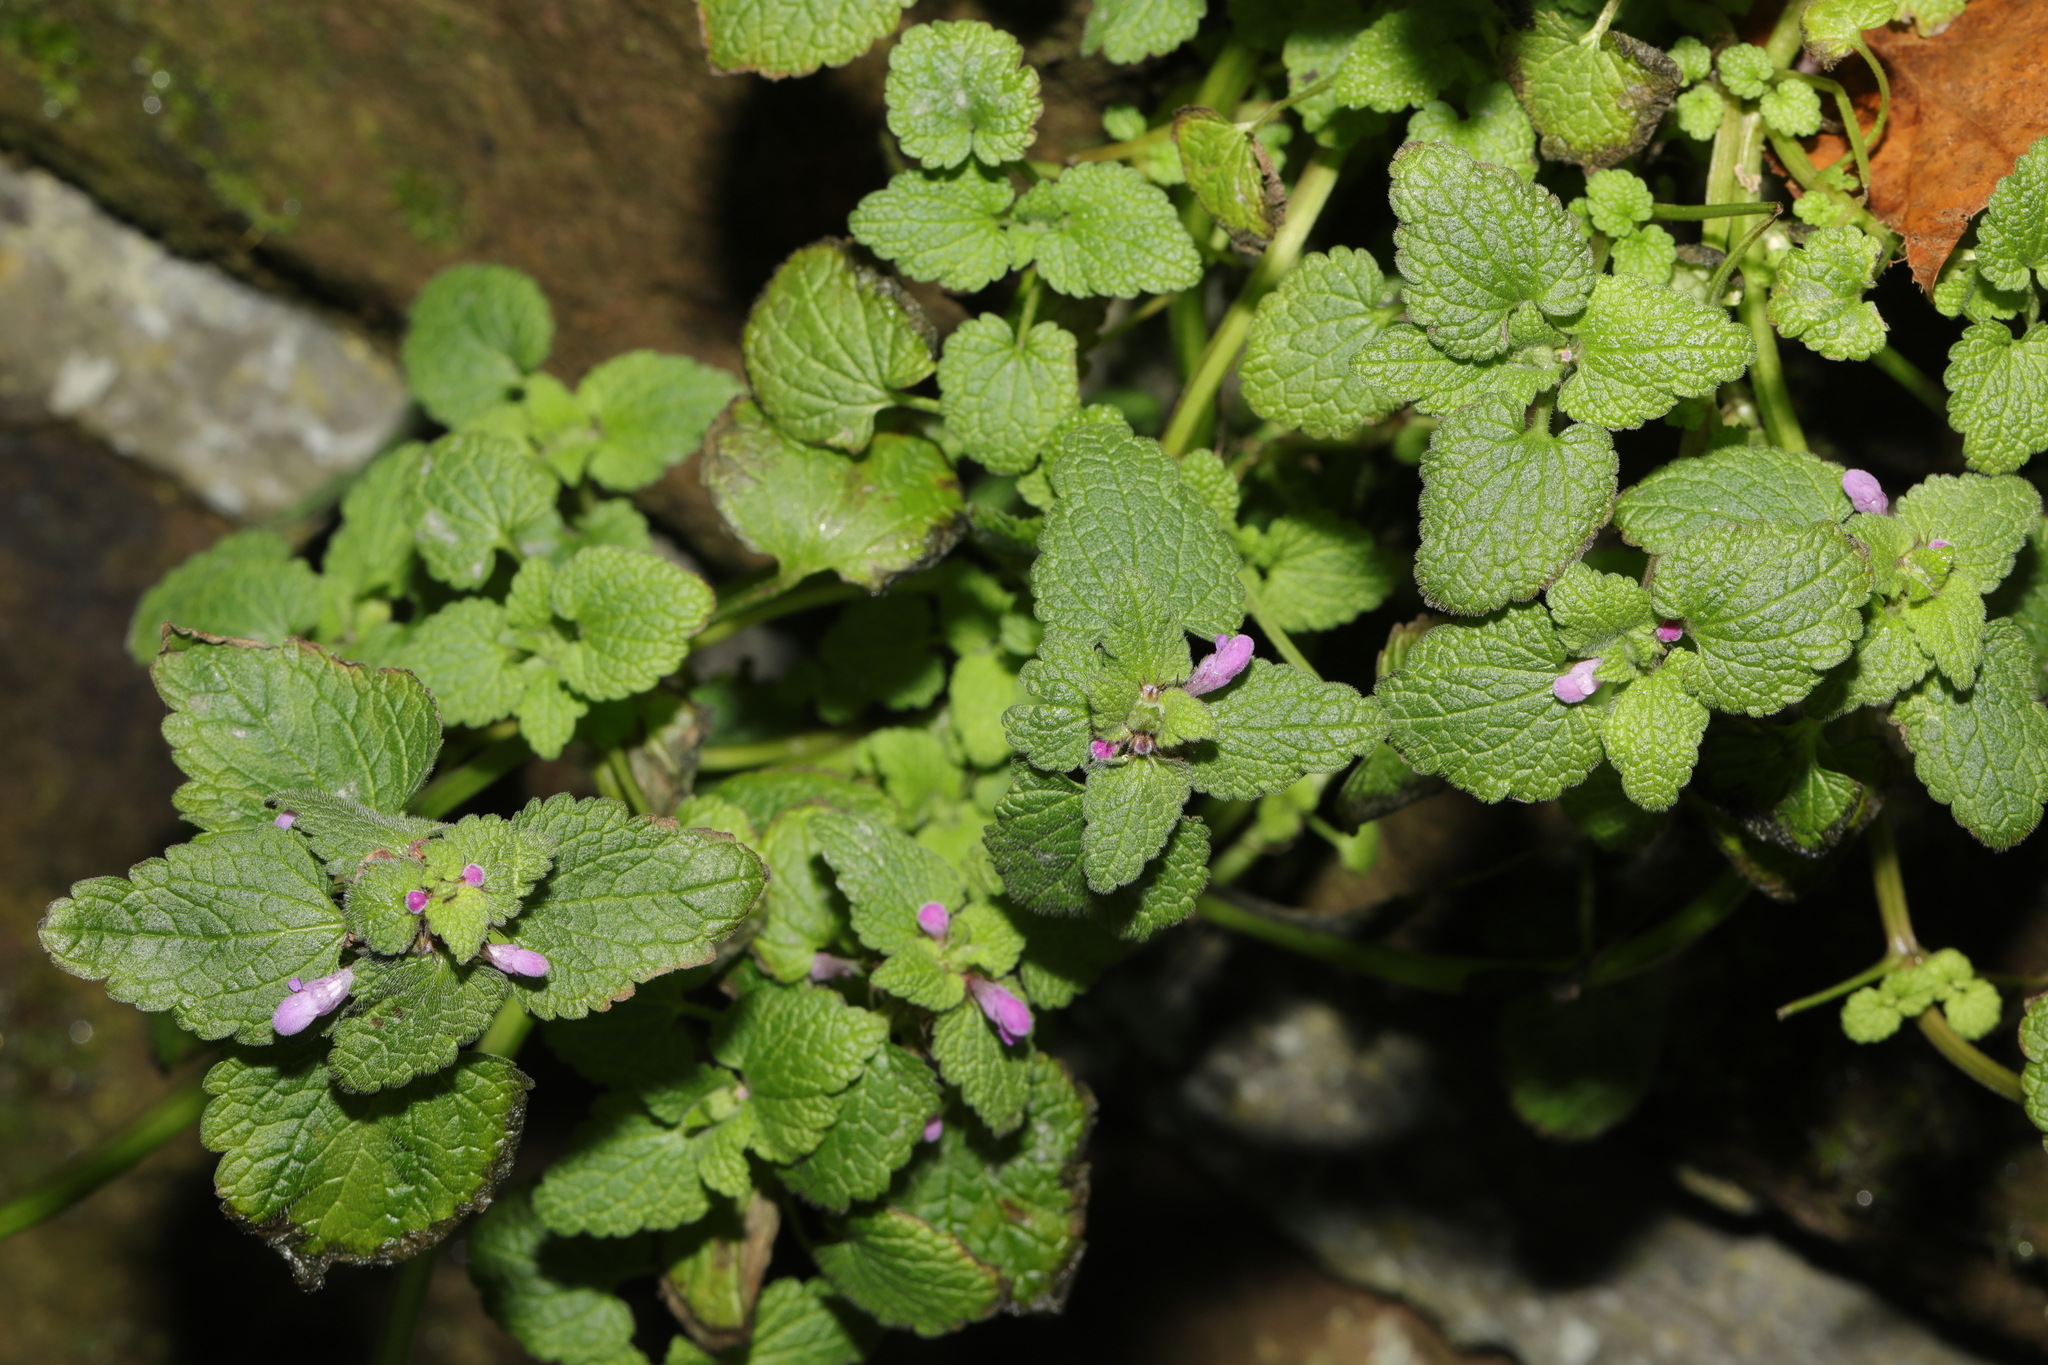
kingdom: Plantae
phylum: Tracheophyta
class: Magnoliopsida
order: Lamiales
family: Lamiaceae
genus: Lamium
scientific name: Lamium purpureum
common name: Red dead-nettle
